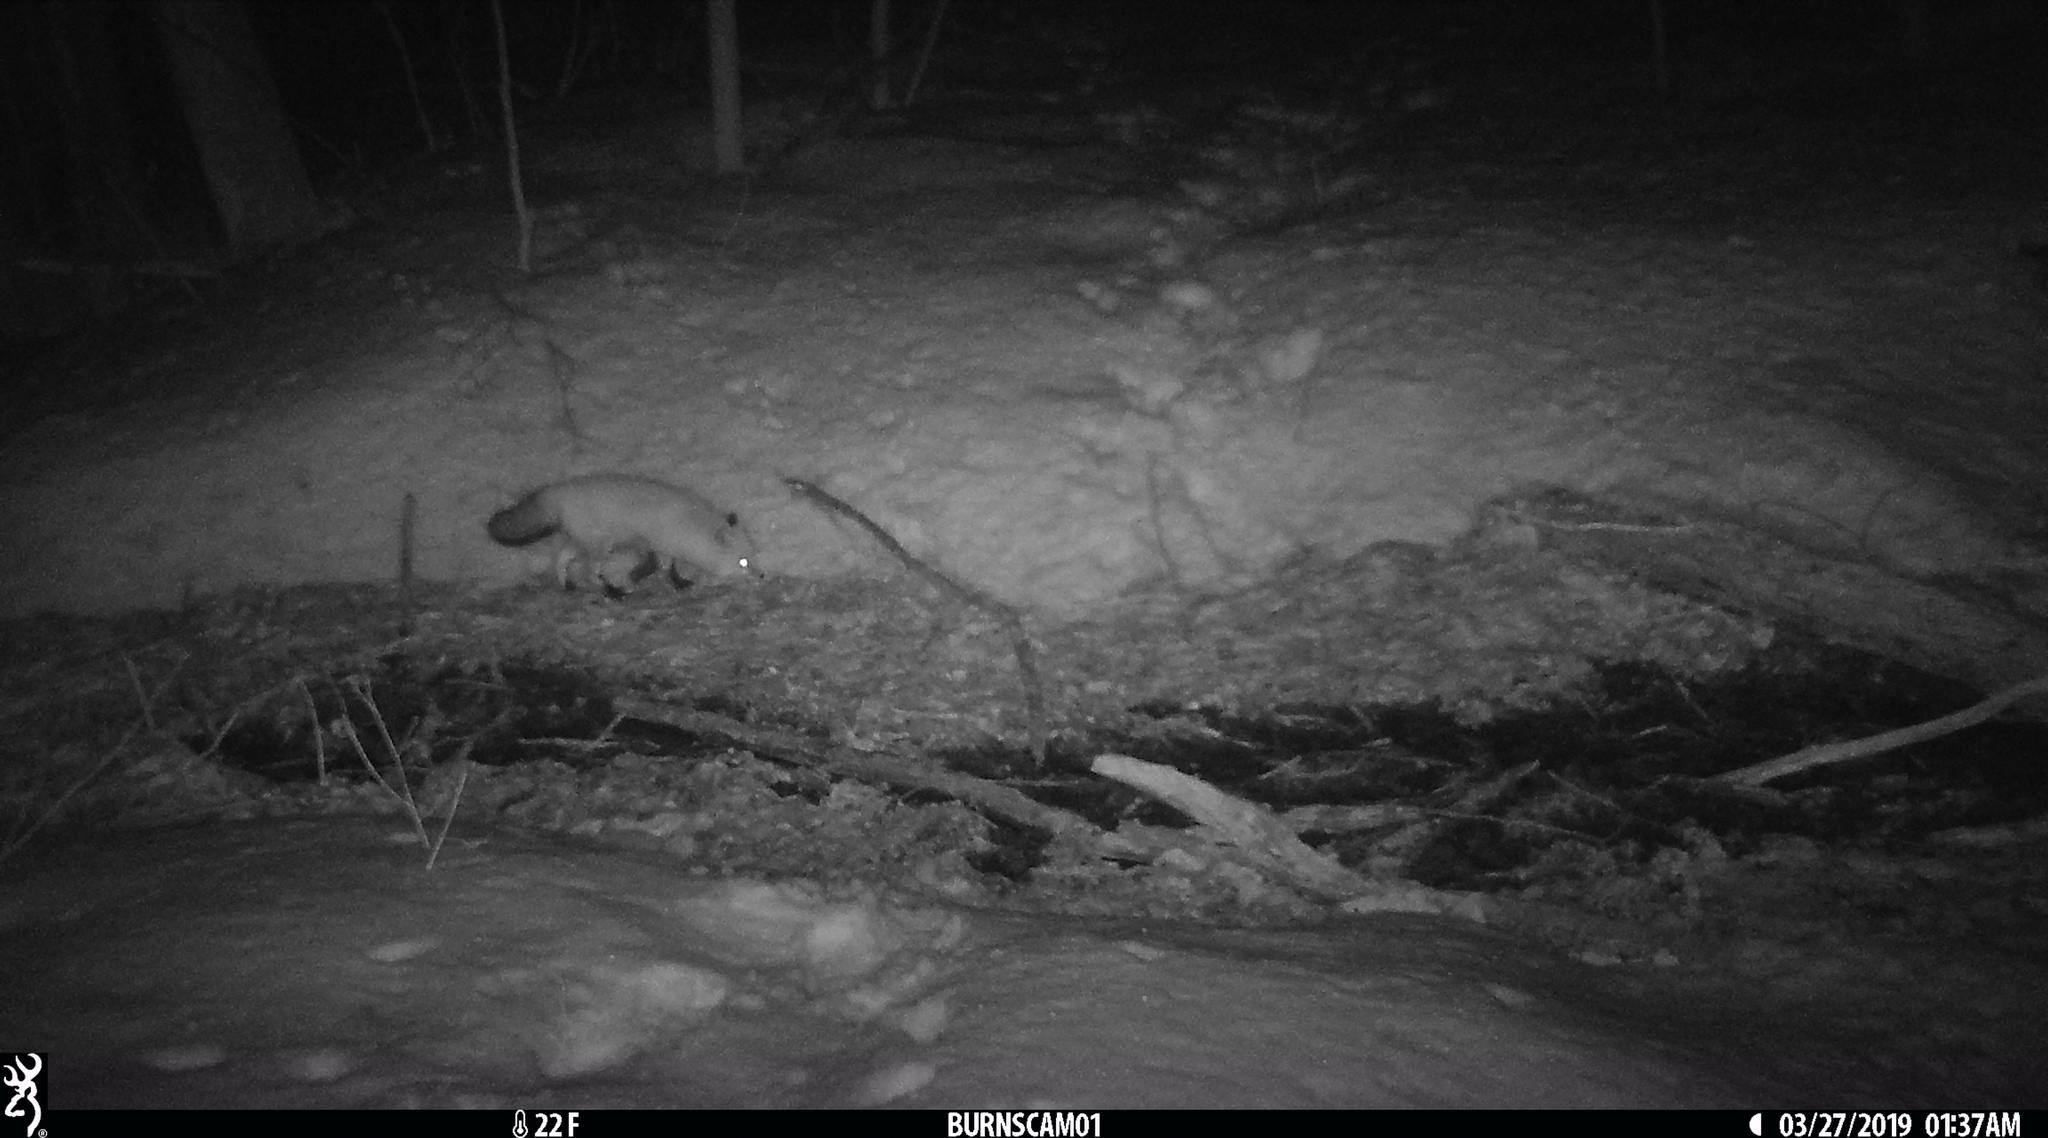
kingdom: Animalia
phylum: Chordata
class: Mammalia
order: Carnivora
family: Canidae
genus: Vulpes
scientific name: Vulpes vulpes
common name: Red fox
